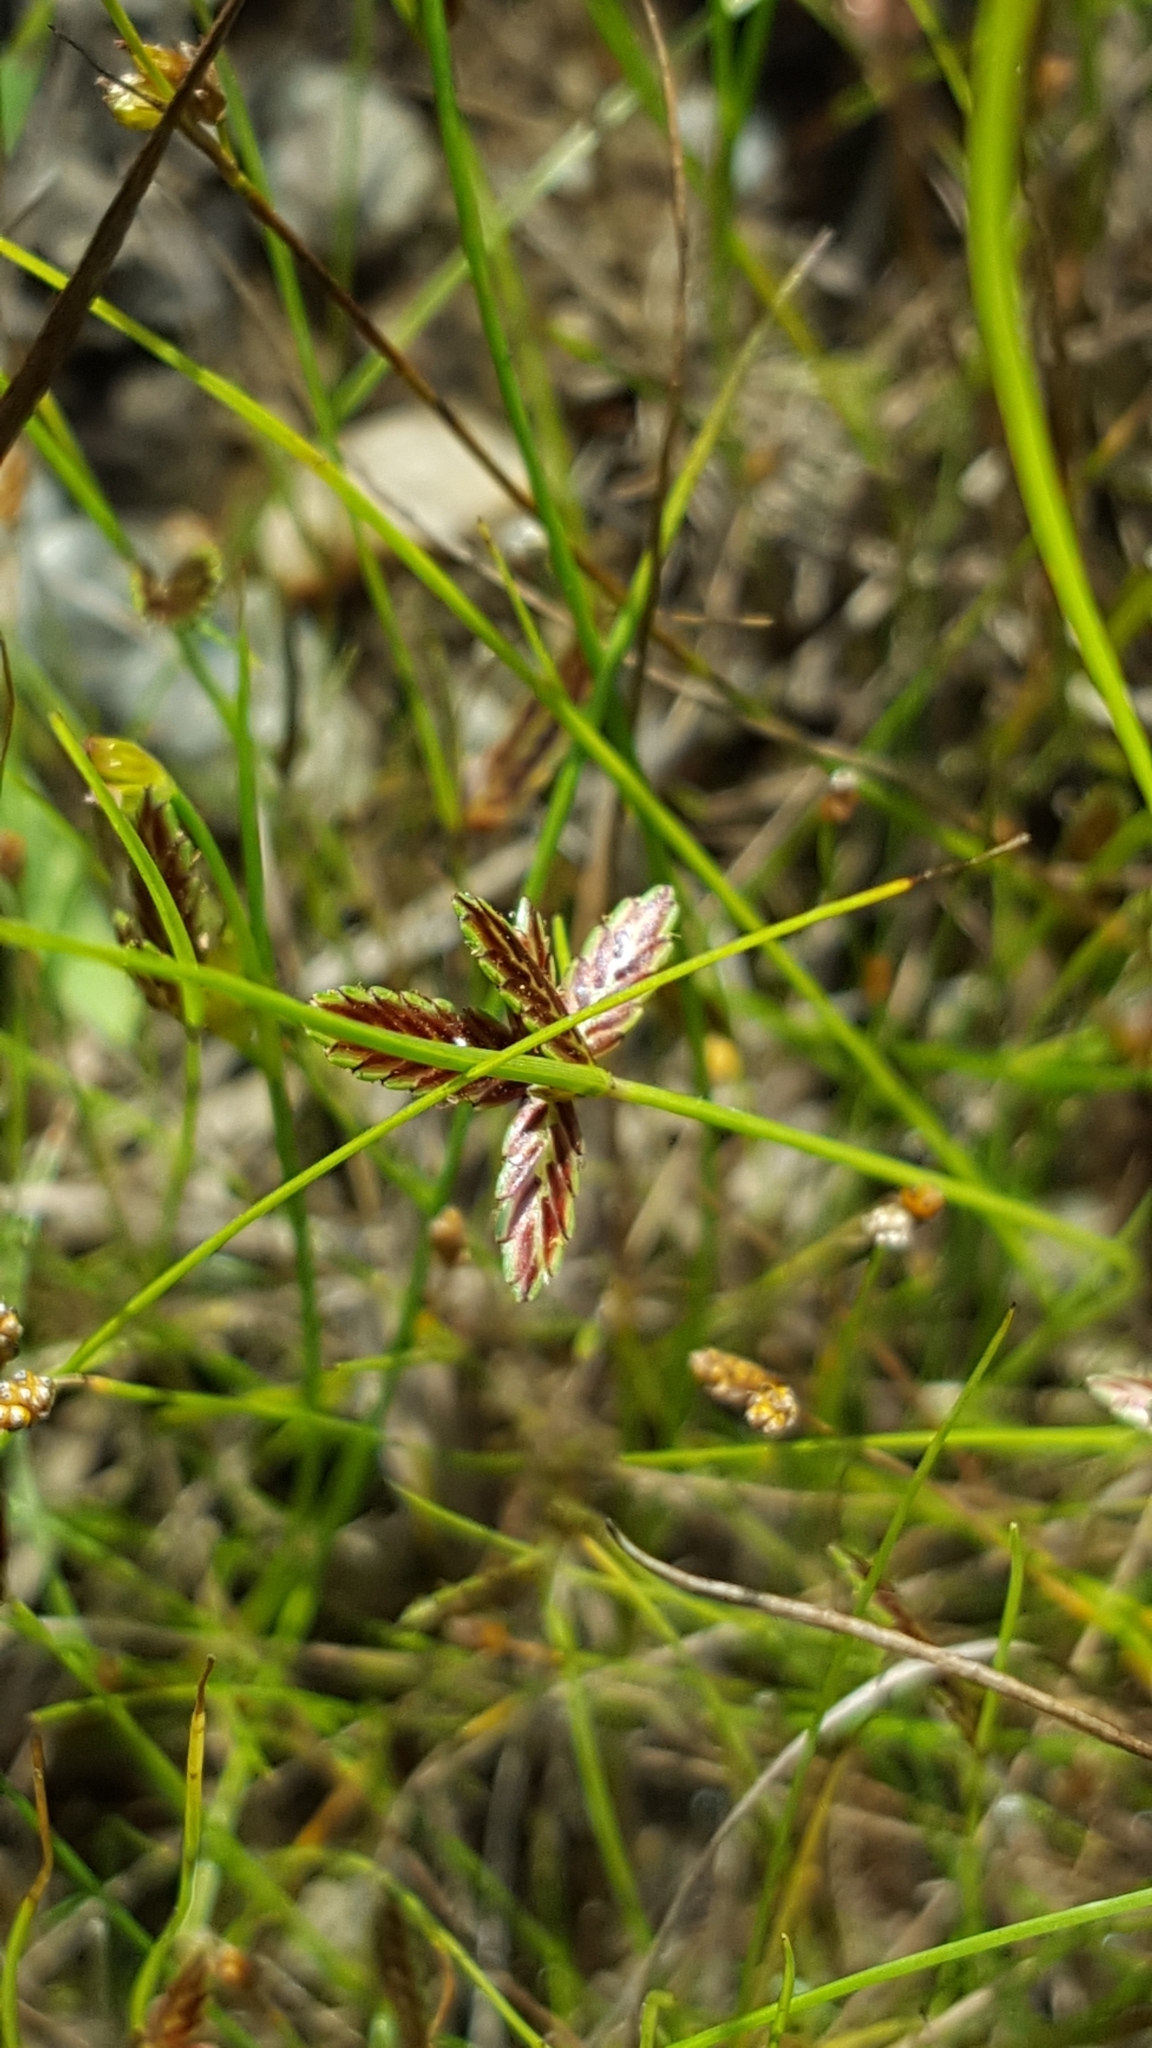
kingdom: Plantae
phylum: Tracheophyta
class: Liliopsida
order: Poales
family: Cyperaceae
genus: Cyperus
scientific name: Cyperus bipartitus
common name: Brook flatsedge
